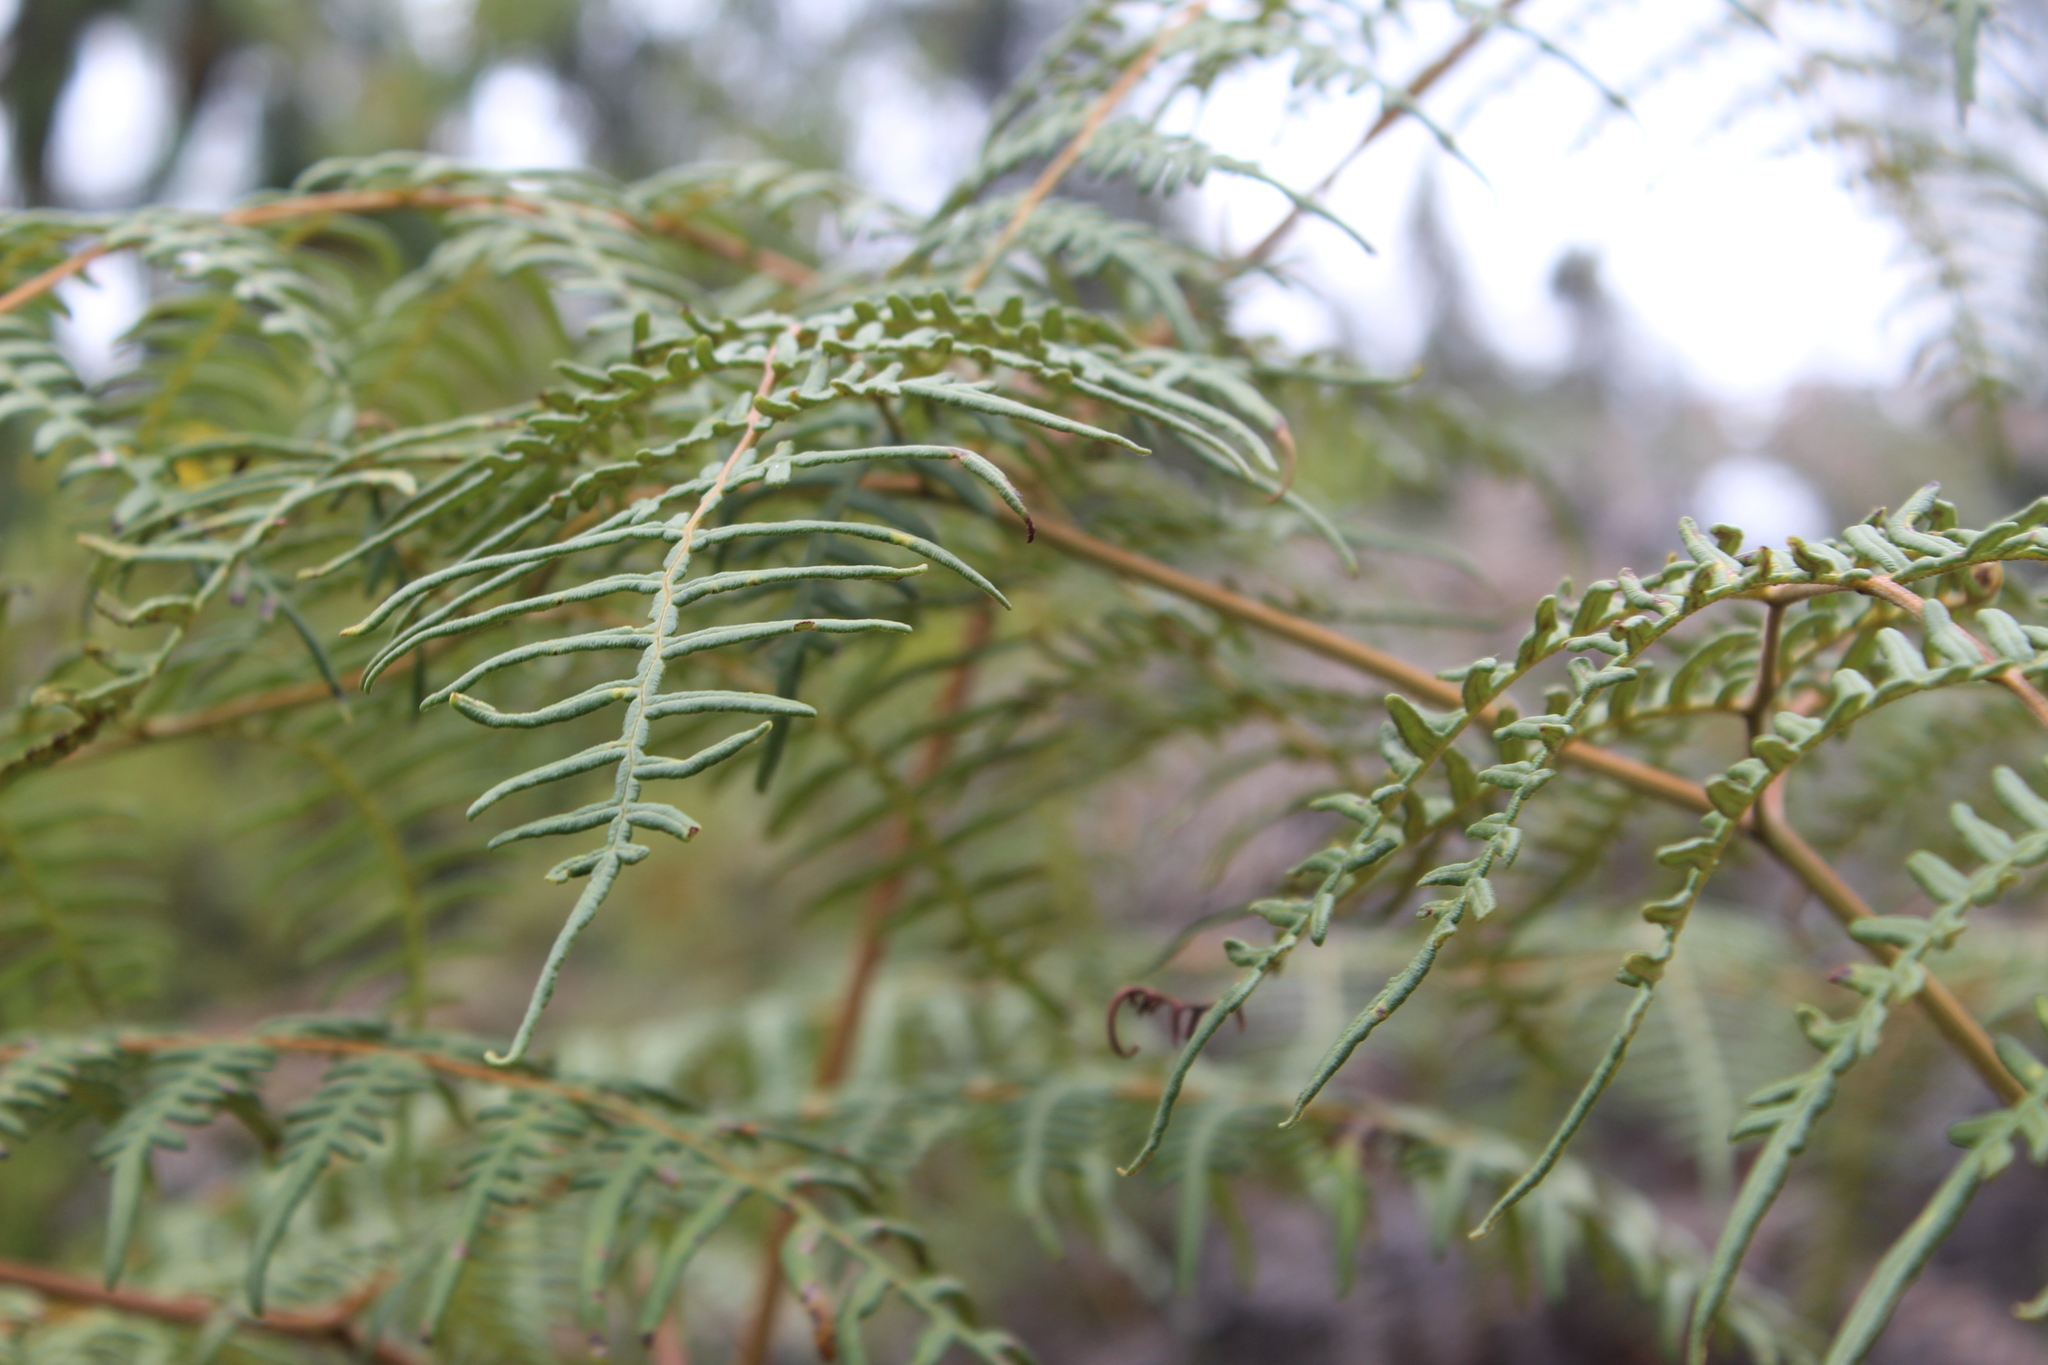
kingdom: Plantae
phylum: Tracheophyta
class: Polypodiopsida
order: Polypodiales
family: Dennstaedtiaceae
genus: Pteridium
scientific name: Pteridium esculentum
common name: Bracken fern
